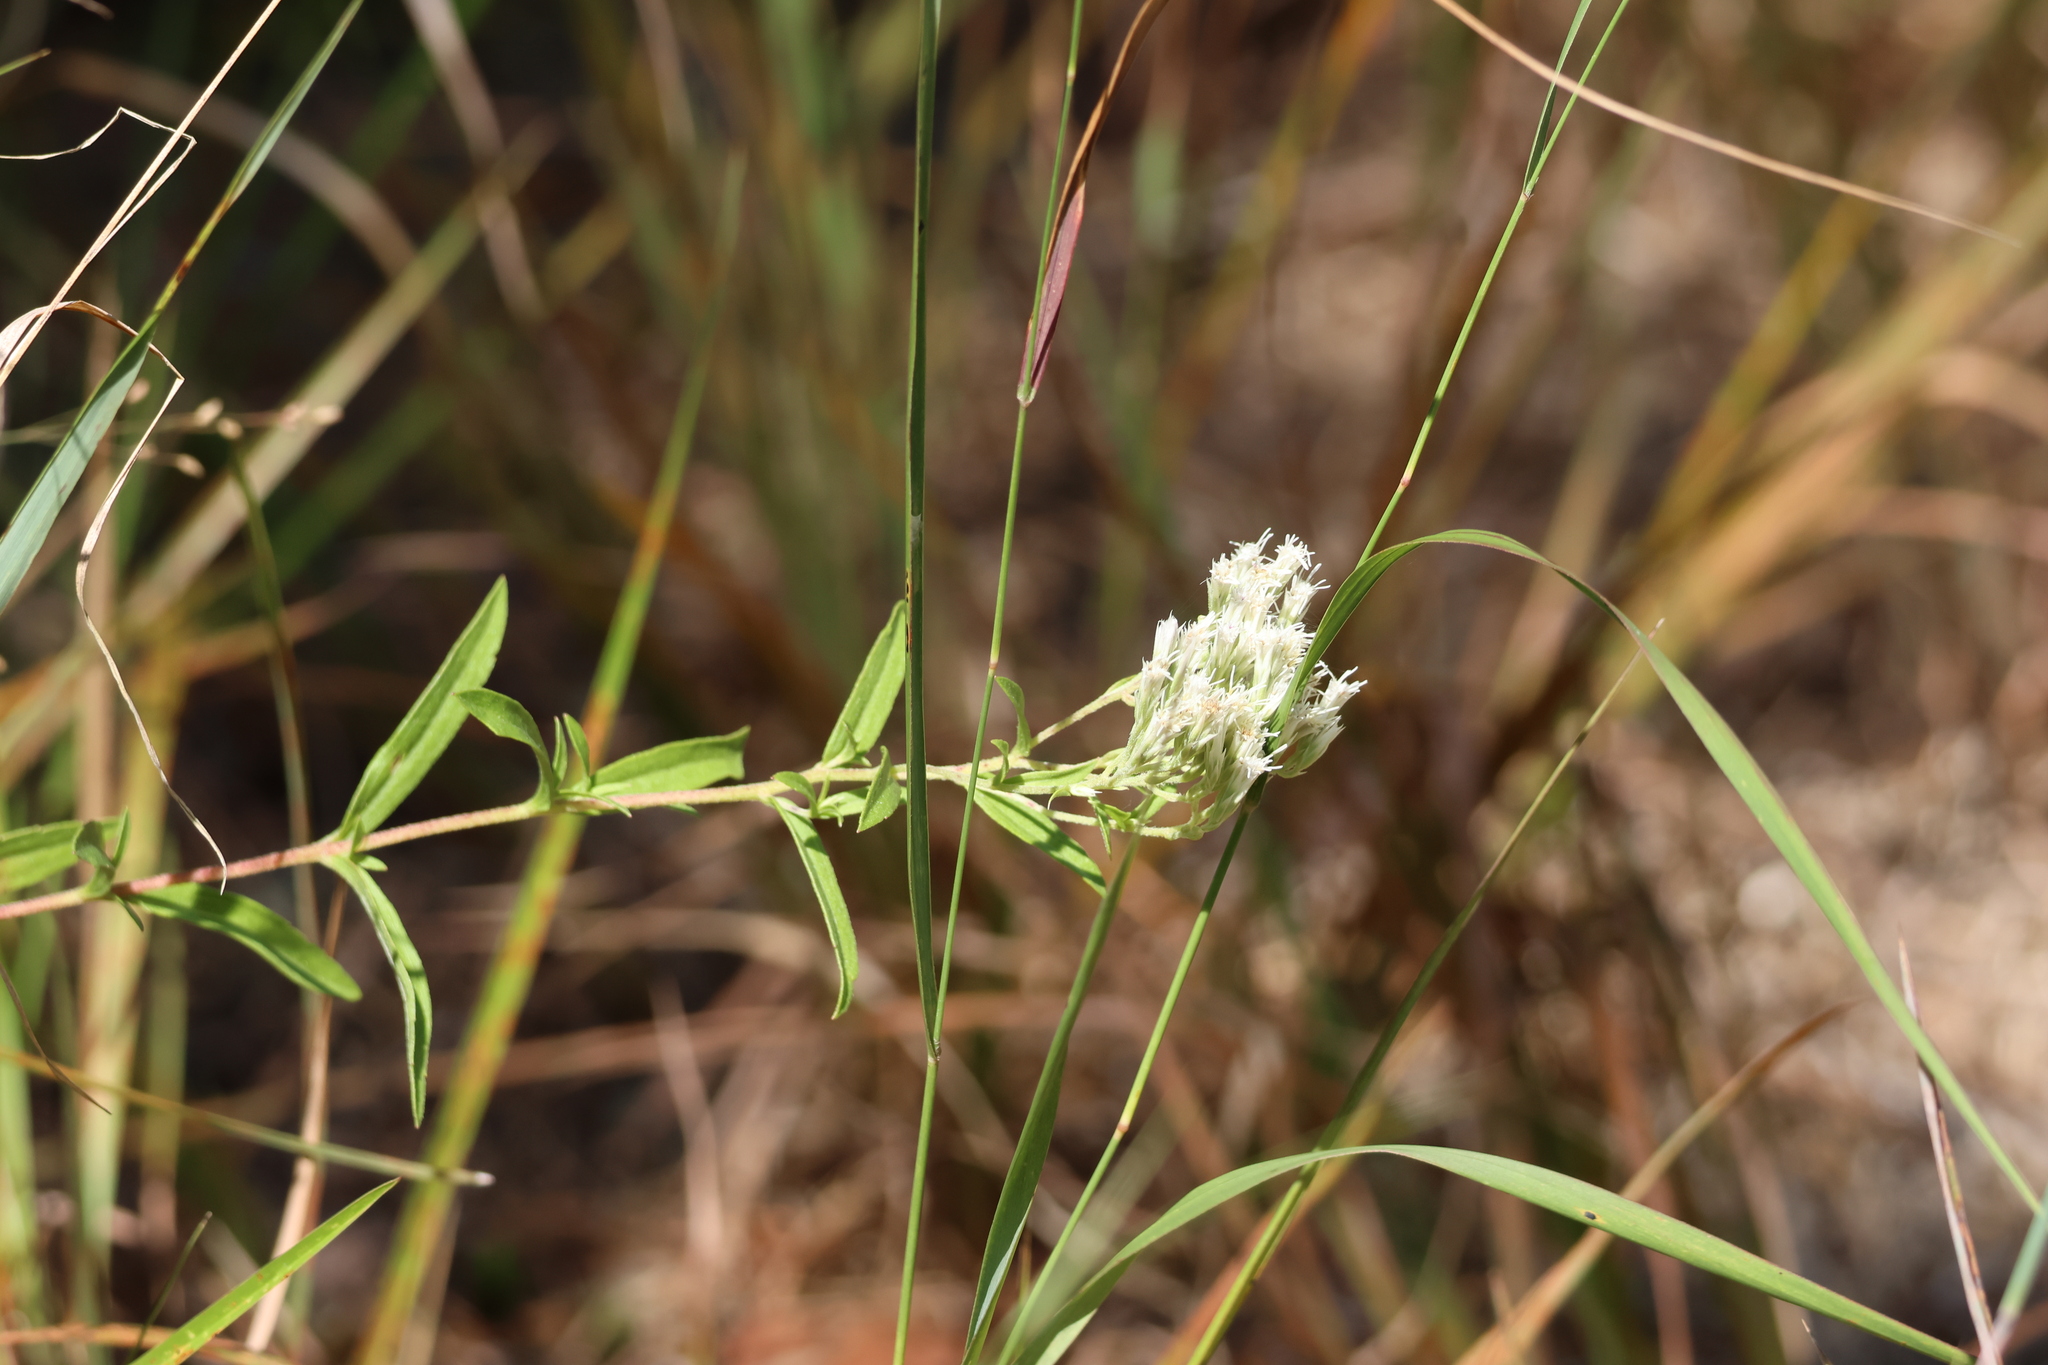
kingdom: Plantae
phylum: Tracheophyta
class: Magnoliopsida
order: Asterales
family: Asteraceae
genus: Eupatorium
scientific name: Eupatorium subvenosum
